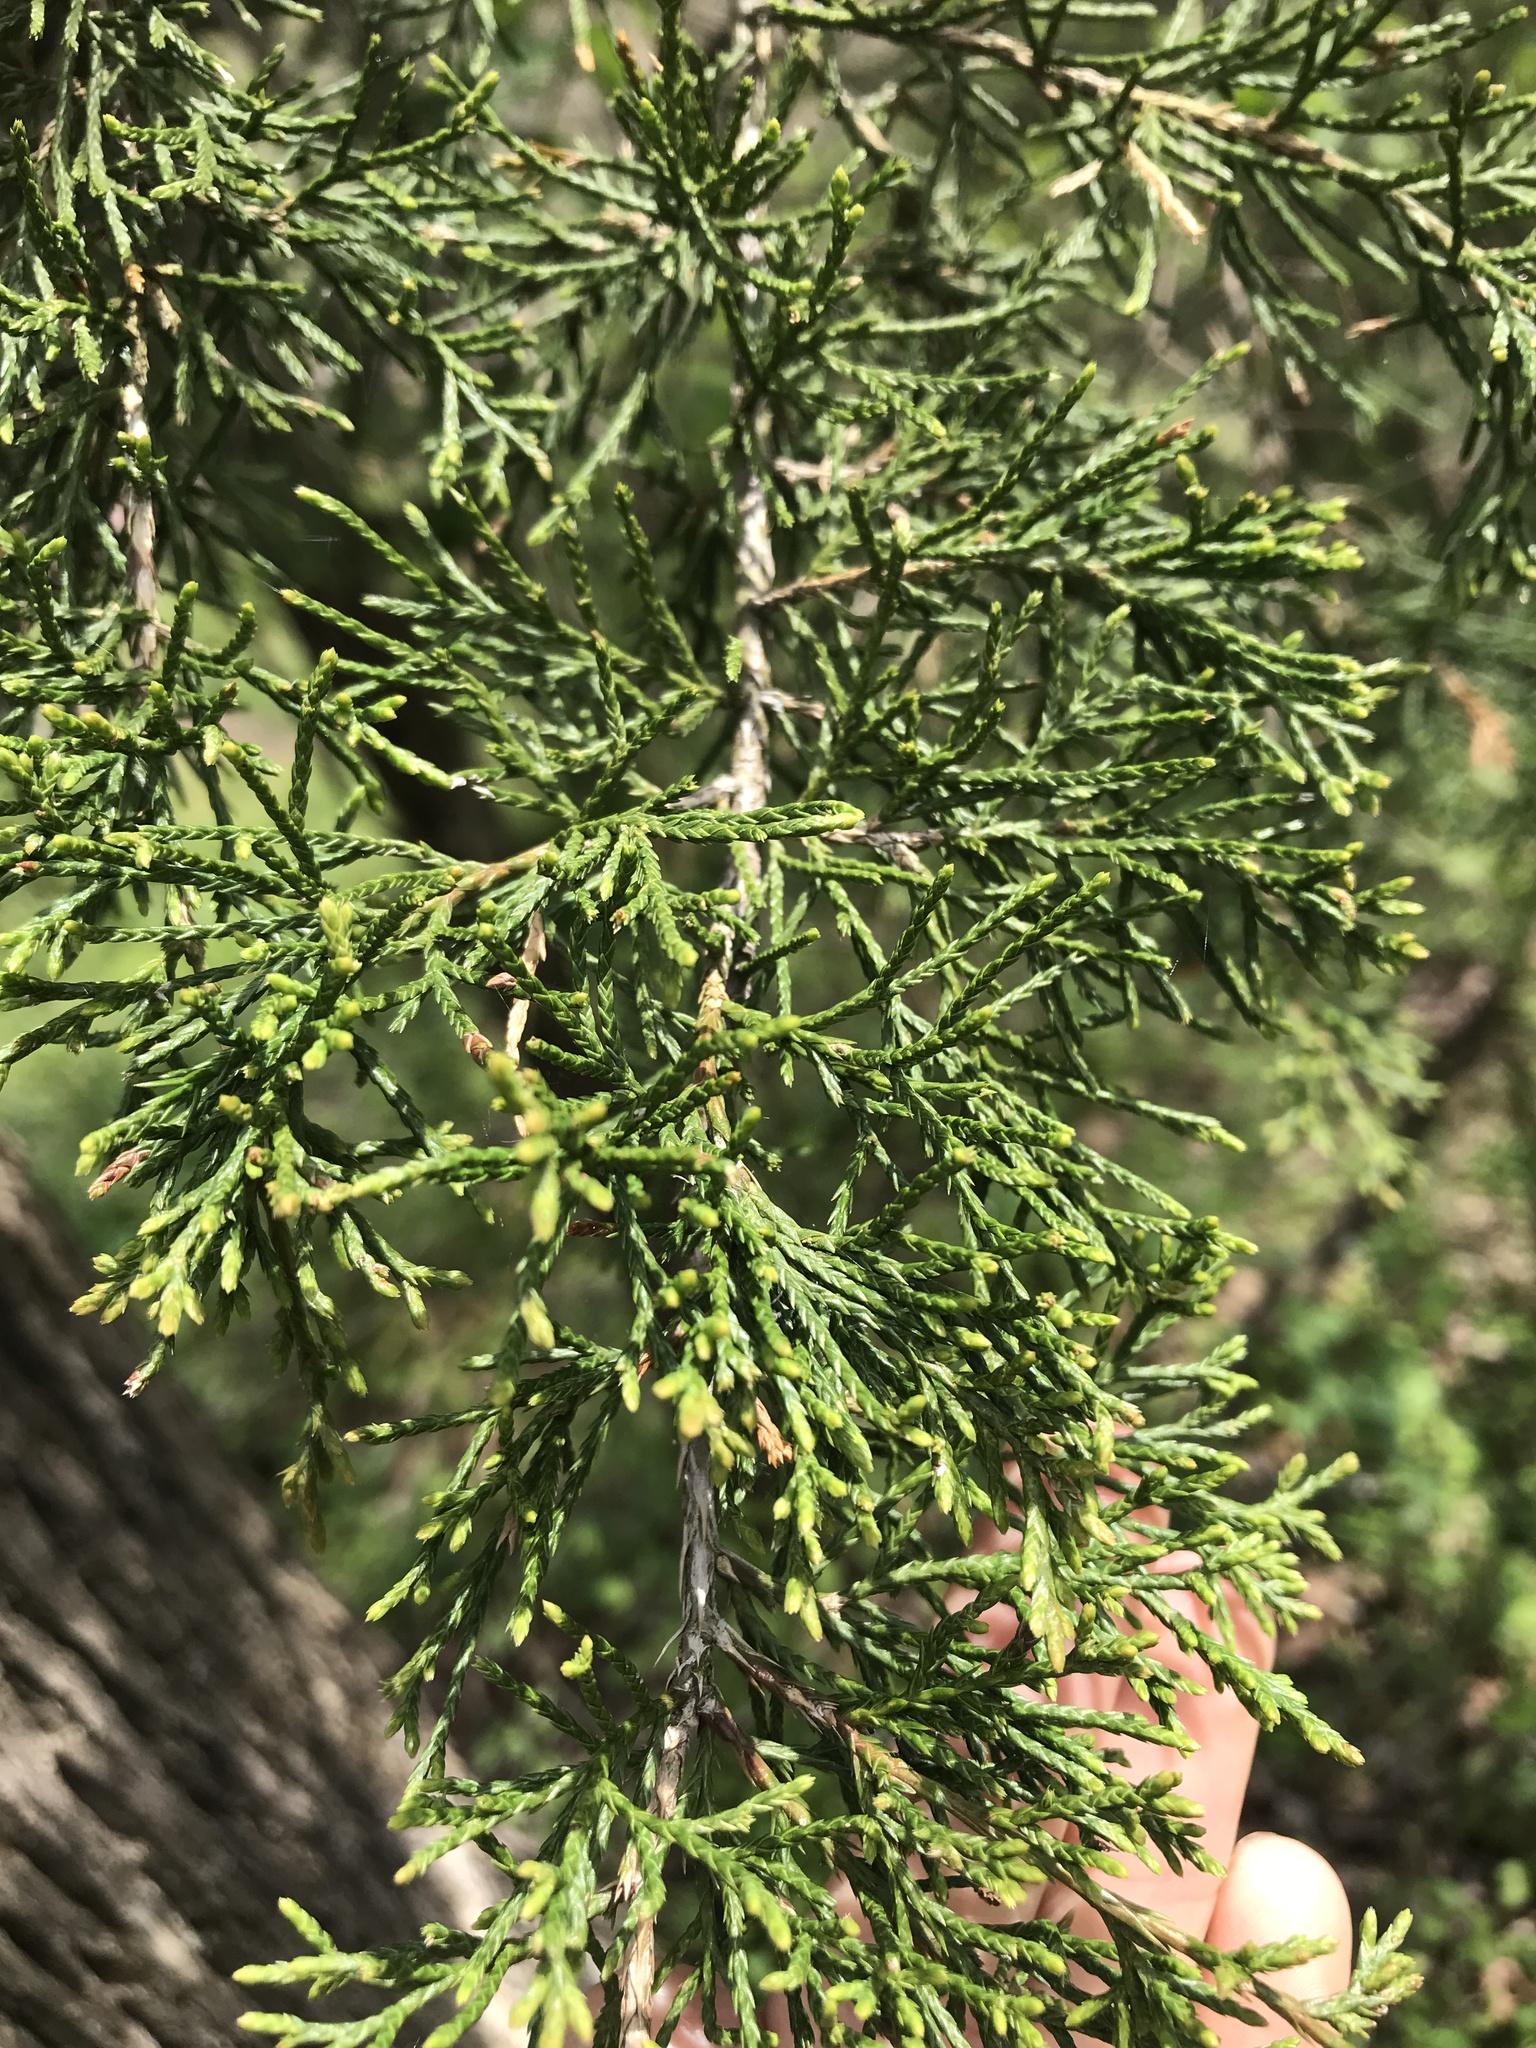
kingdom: Plantae
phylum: Tracheophyta
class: Pinopsida
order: Pinales
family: Cupressaceae
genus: Juniperus
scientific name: Juniperus virginiana
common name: Red juniper
